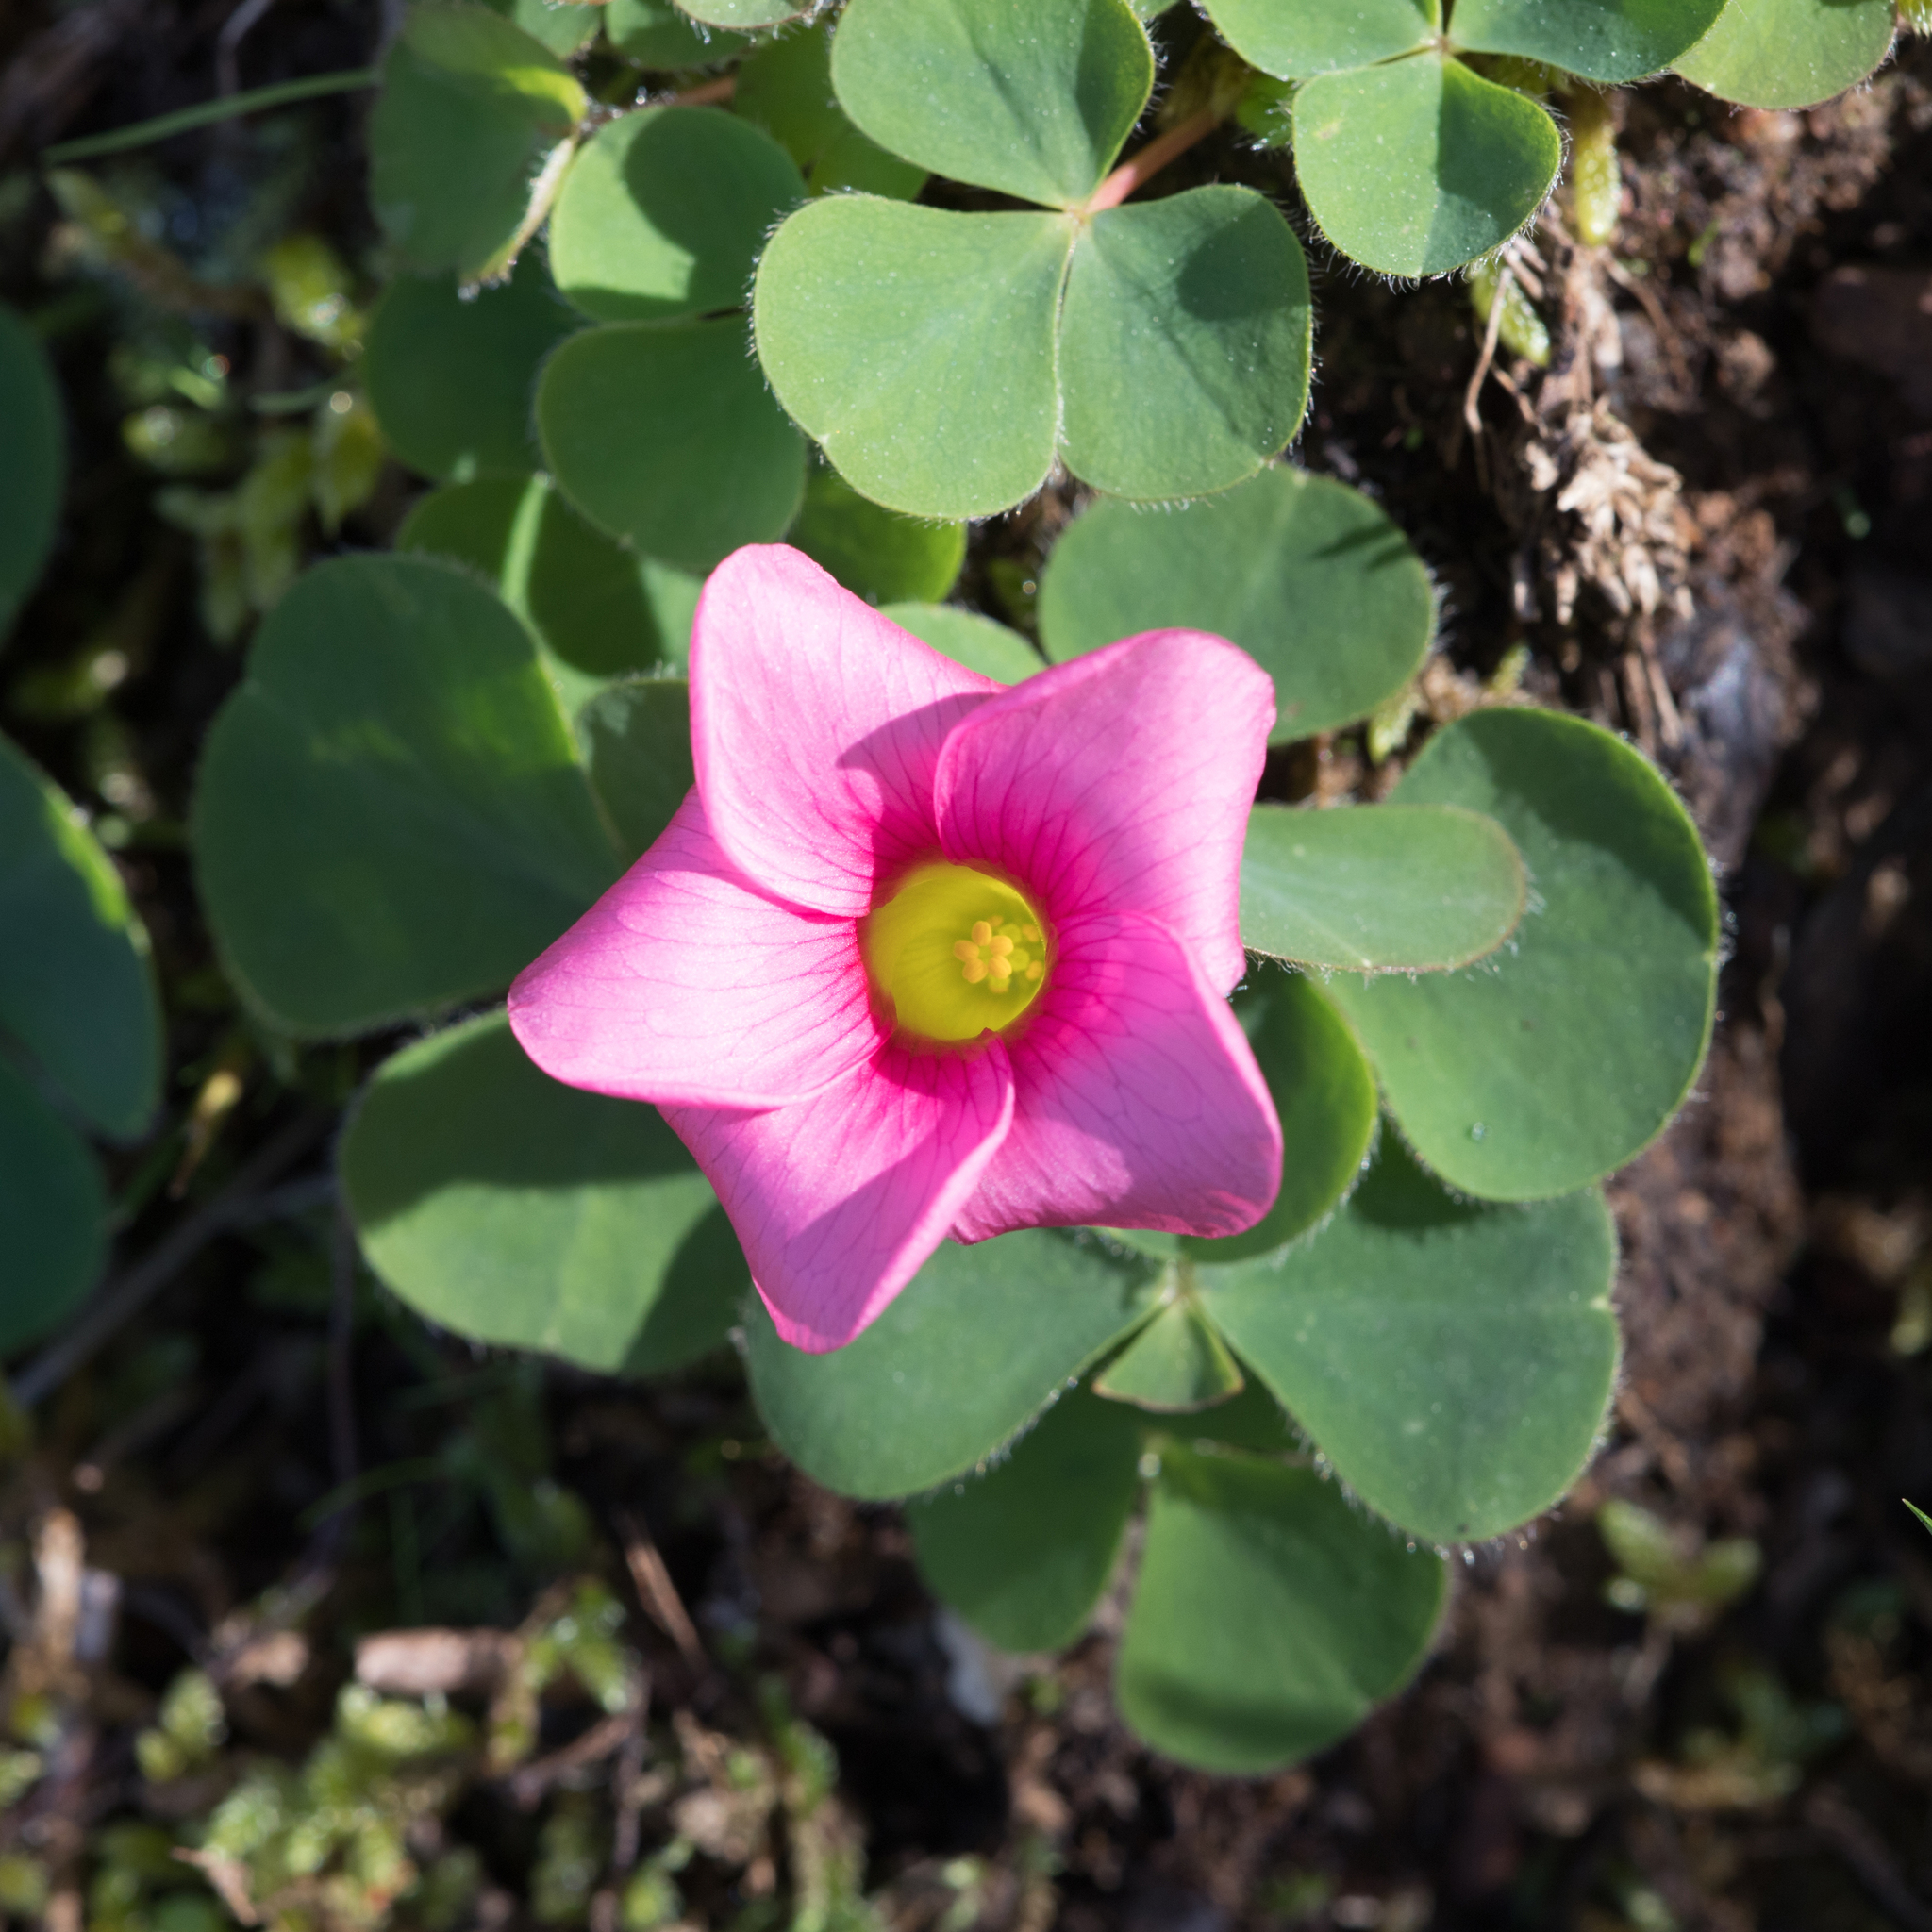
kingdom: Plantae
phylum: Tracheophyta
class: Magnoliopsida
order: Oxalidales
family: Oxalidaceae
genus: Oxalis
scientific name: Oxalis purpurea
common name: Purple woodsorrel
